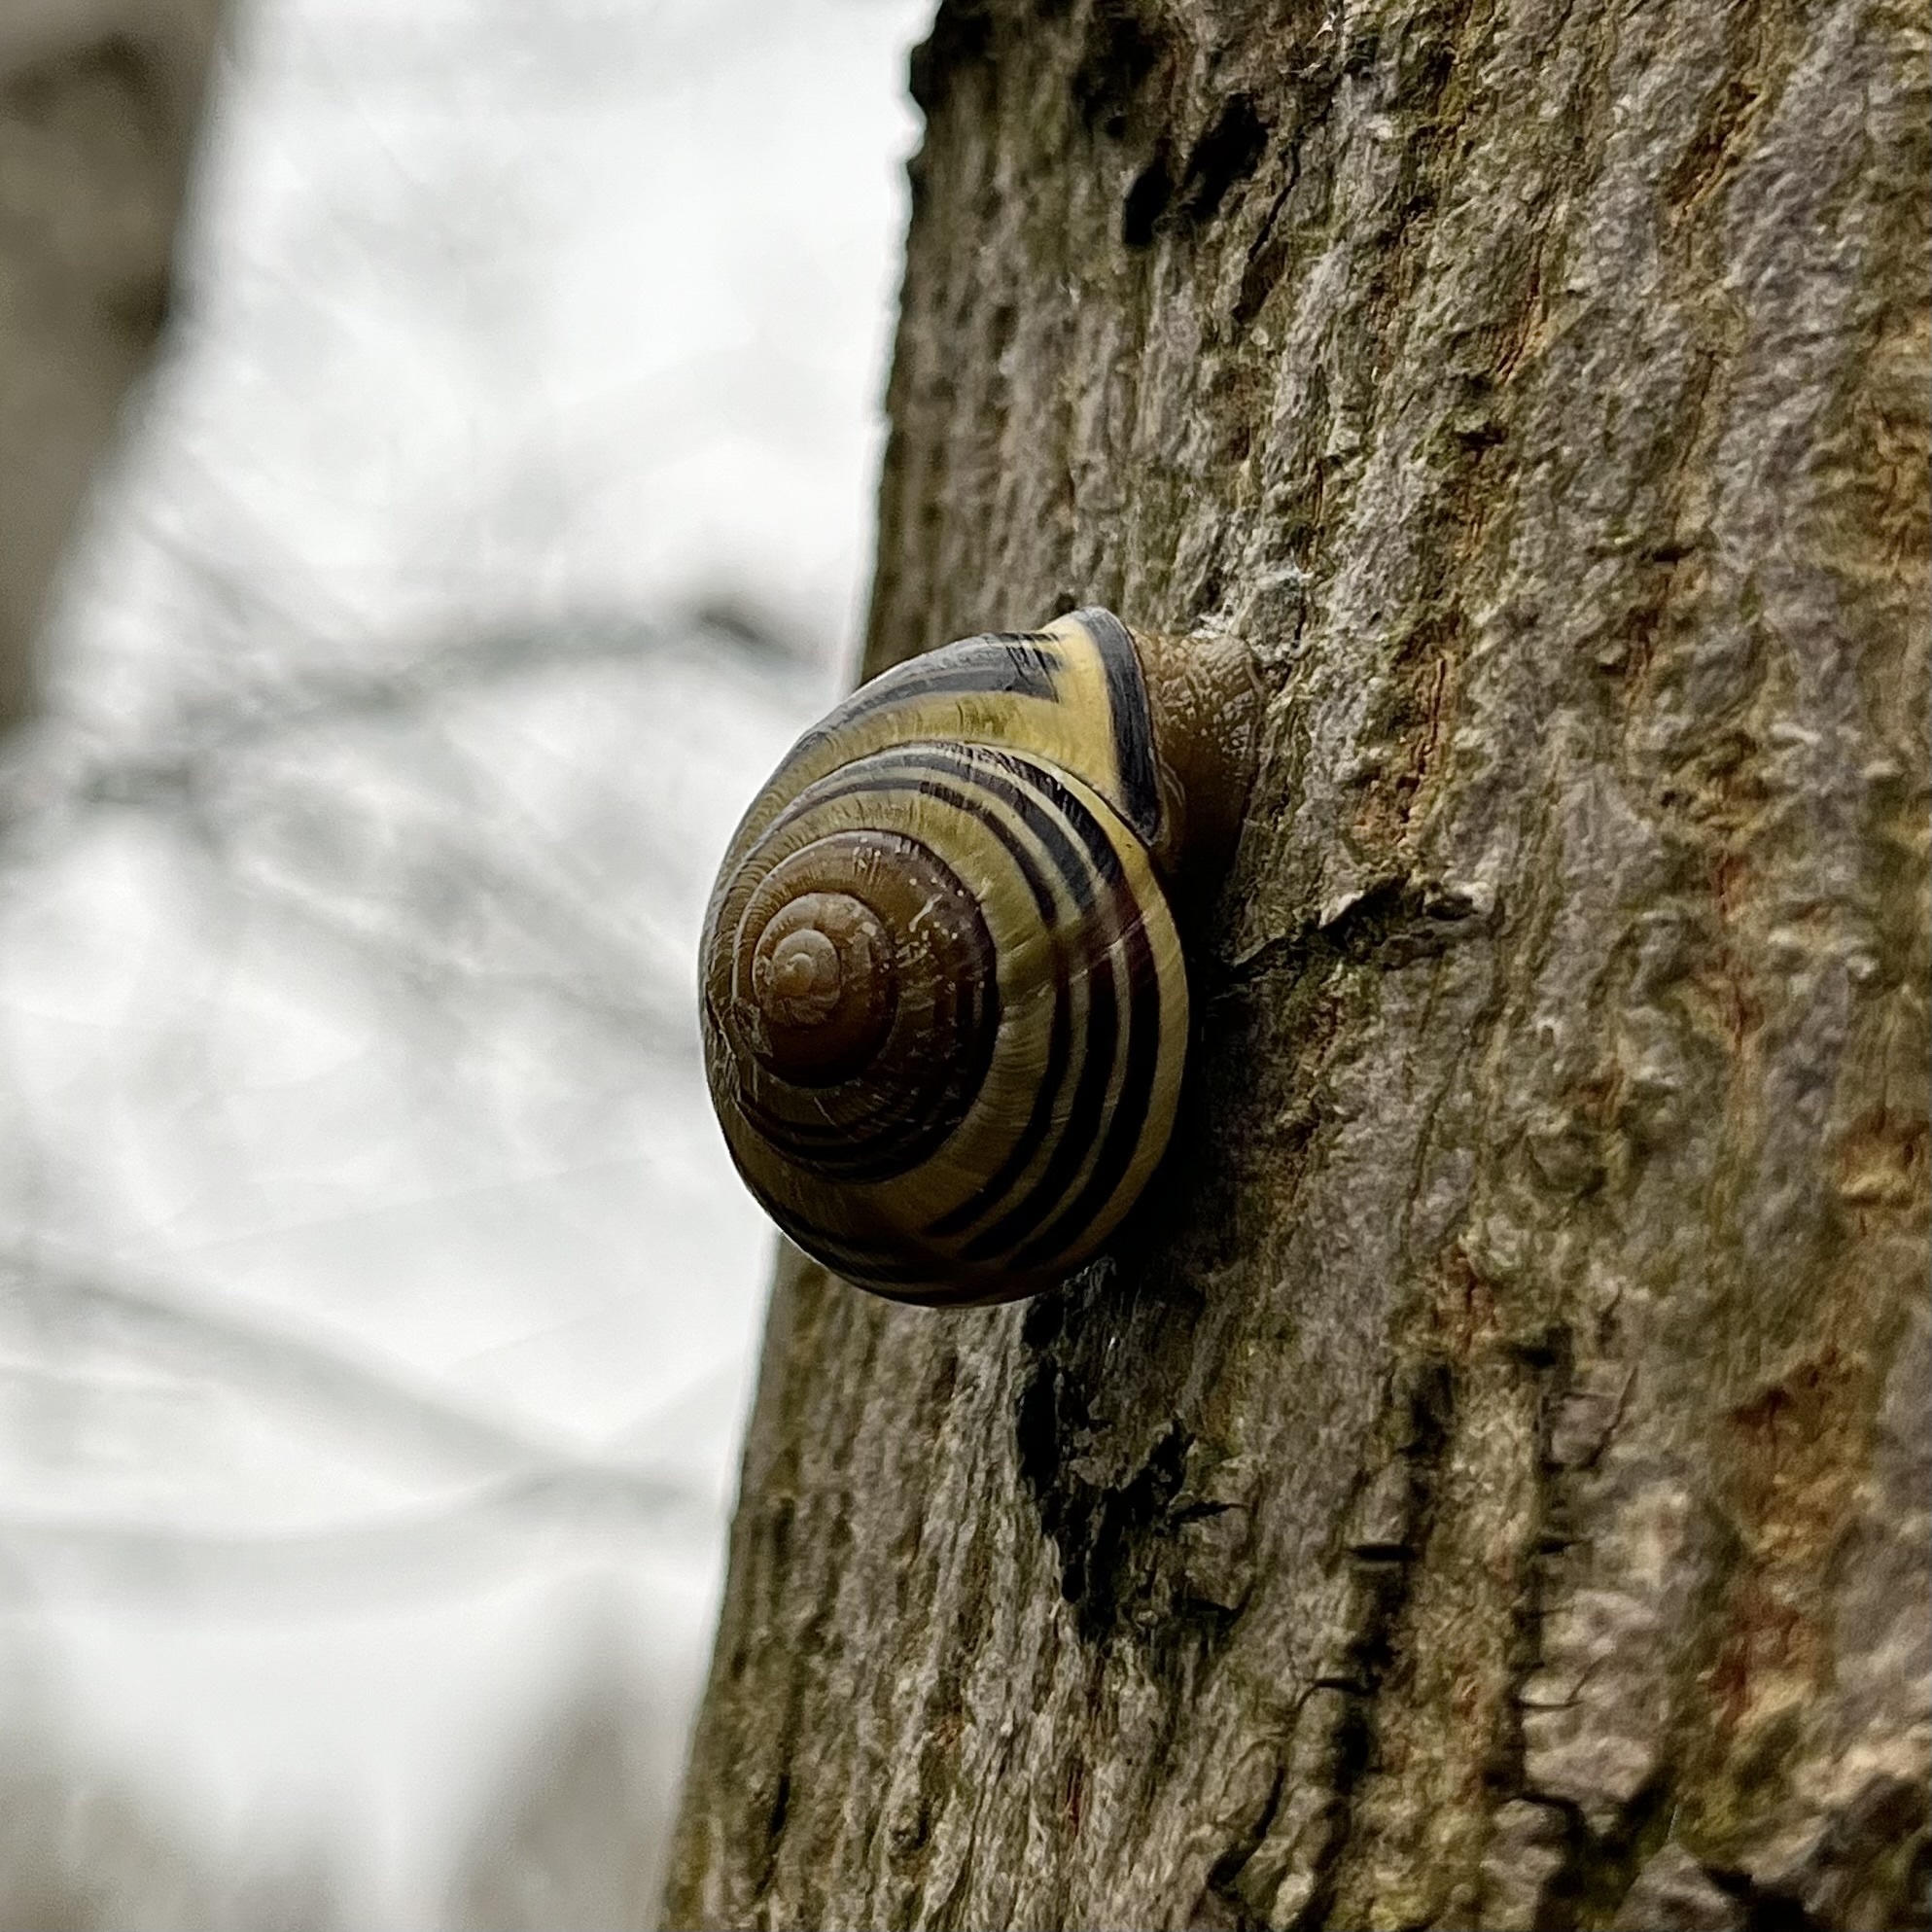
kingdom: Animalia
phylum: Mollusca
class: Gastropoda
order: Stylommatophora
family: Helicidae
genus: Cepaea
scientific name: Cepaea nemoralis
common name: Grovesnail
